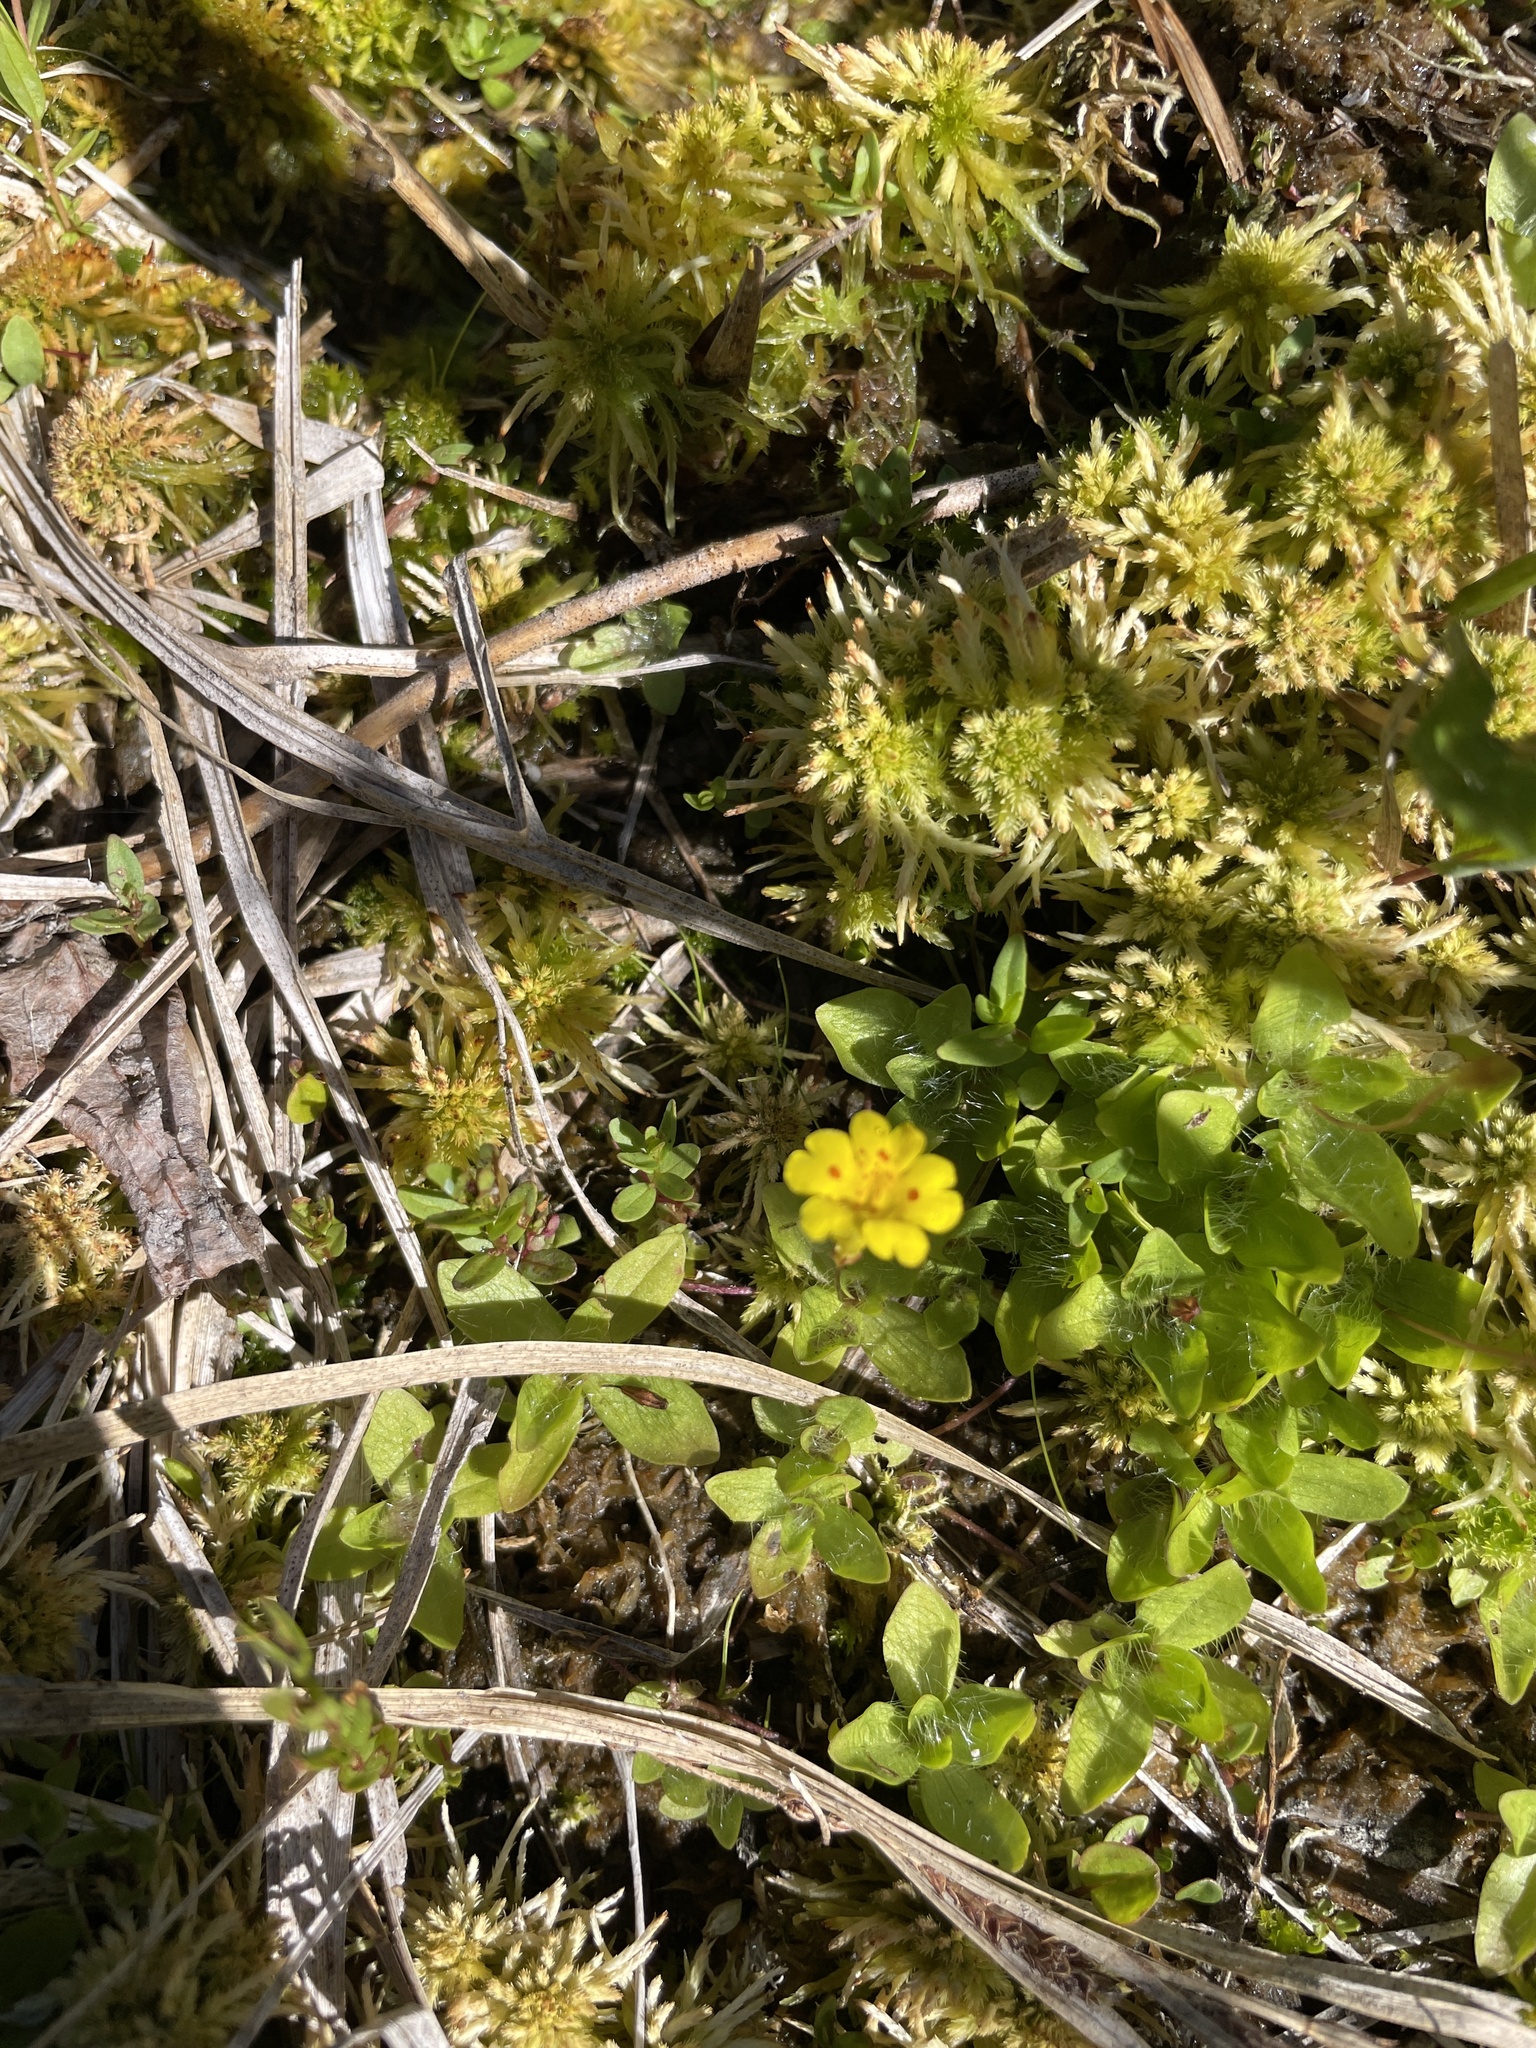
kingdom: Plantae
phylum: Tracheophyta
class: Magnoliopsida
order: Lamiales
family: Phrymaceae
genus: Erythranthe
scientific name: Erythranthe primuloides
